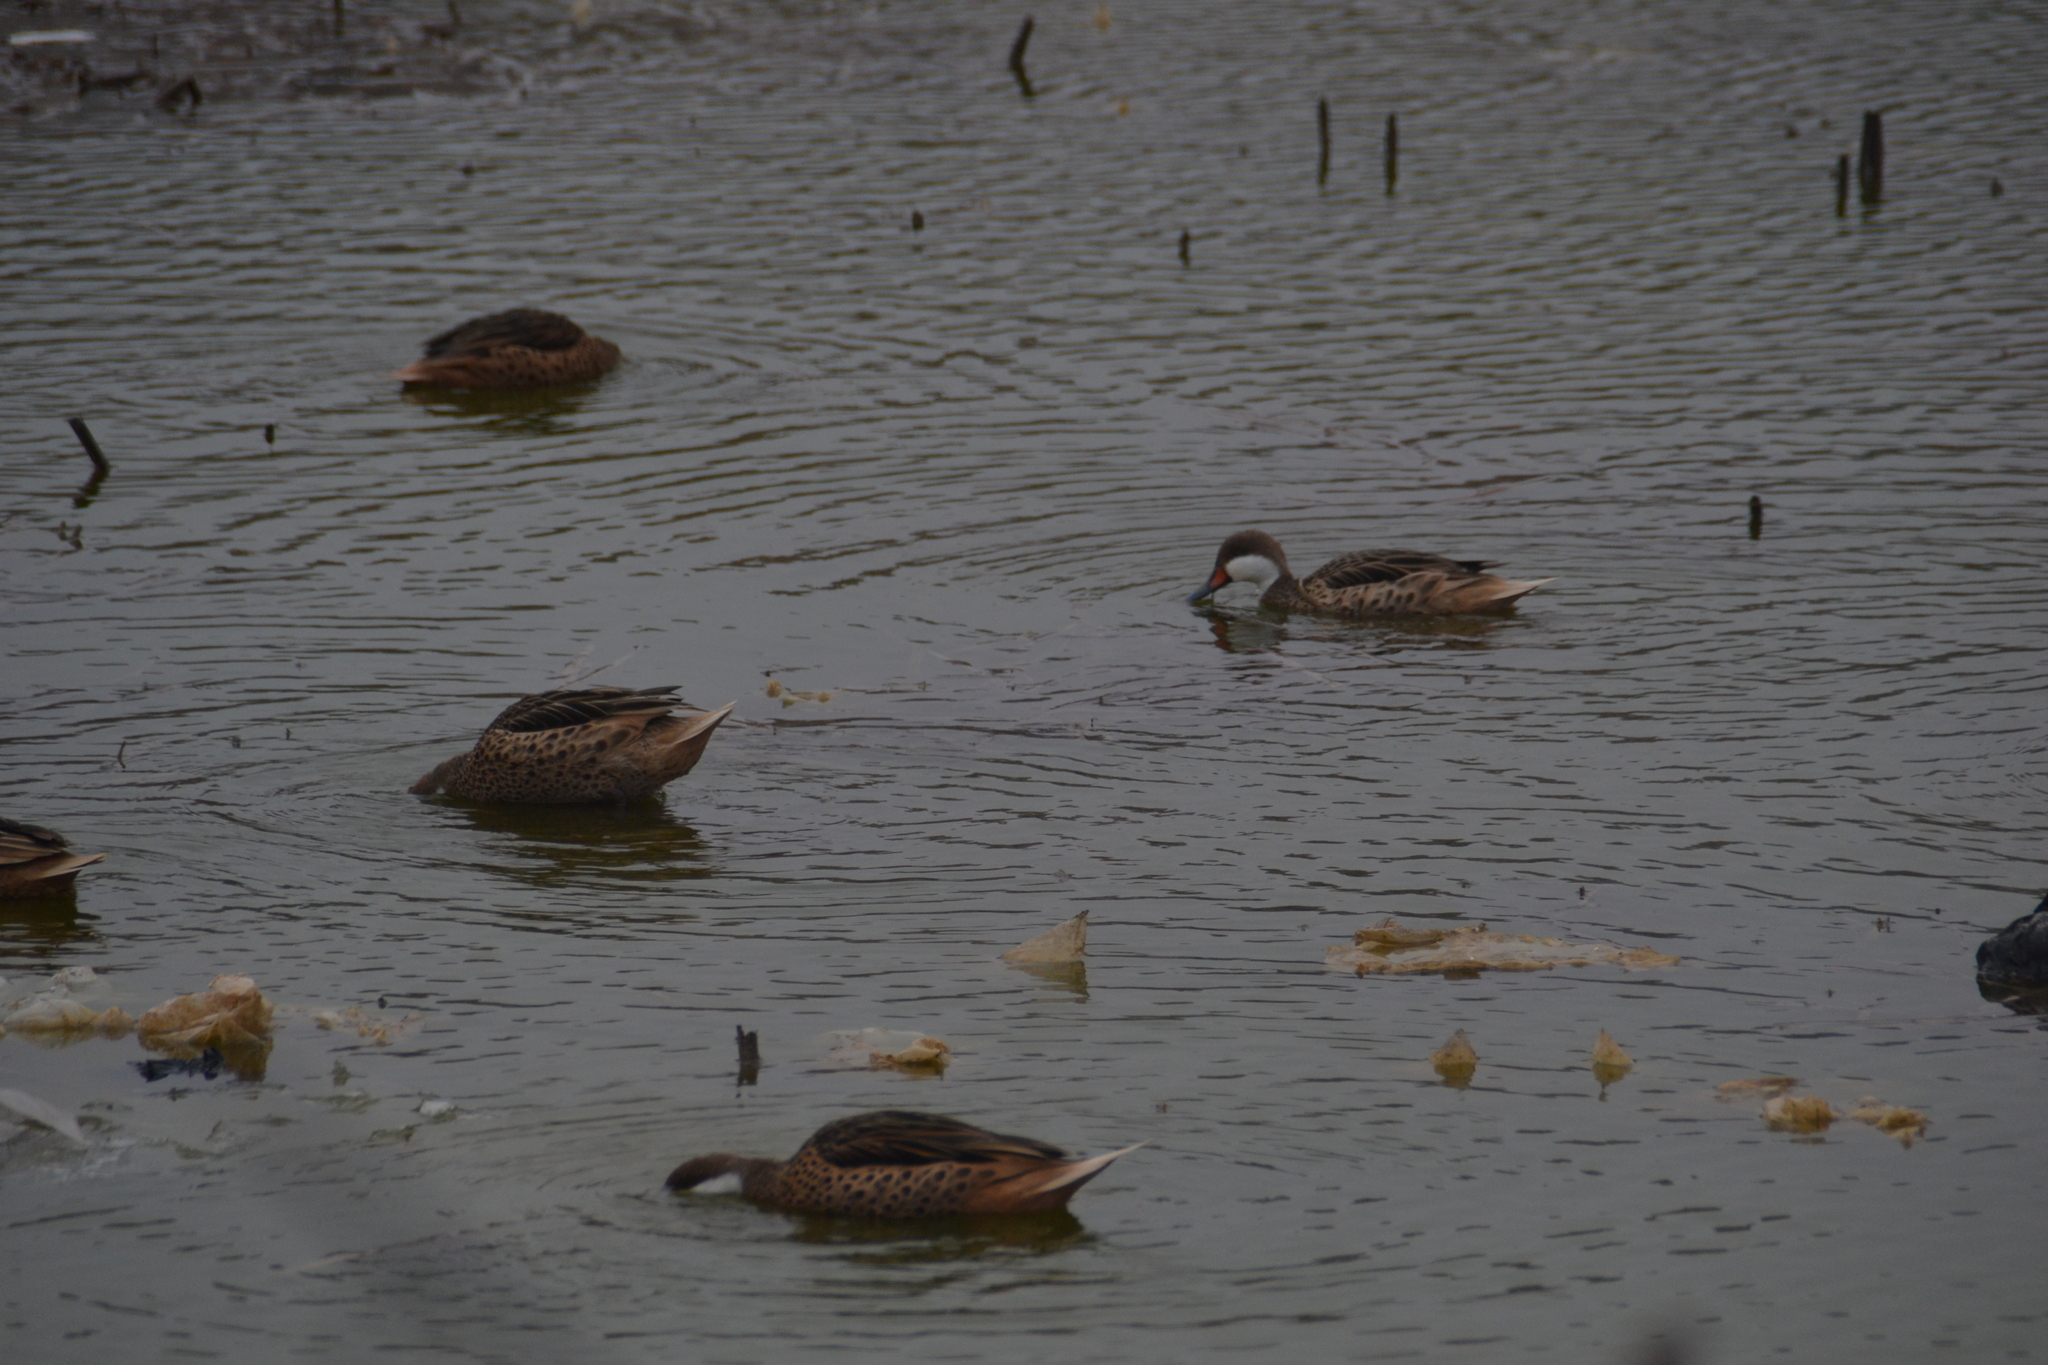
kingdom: Animalia
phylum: Chordata
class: Aves
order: Anseriformes
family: Anatidae
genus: Anas
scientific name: Anas bahamensis
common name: White-cheeked pintail
